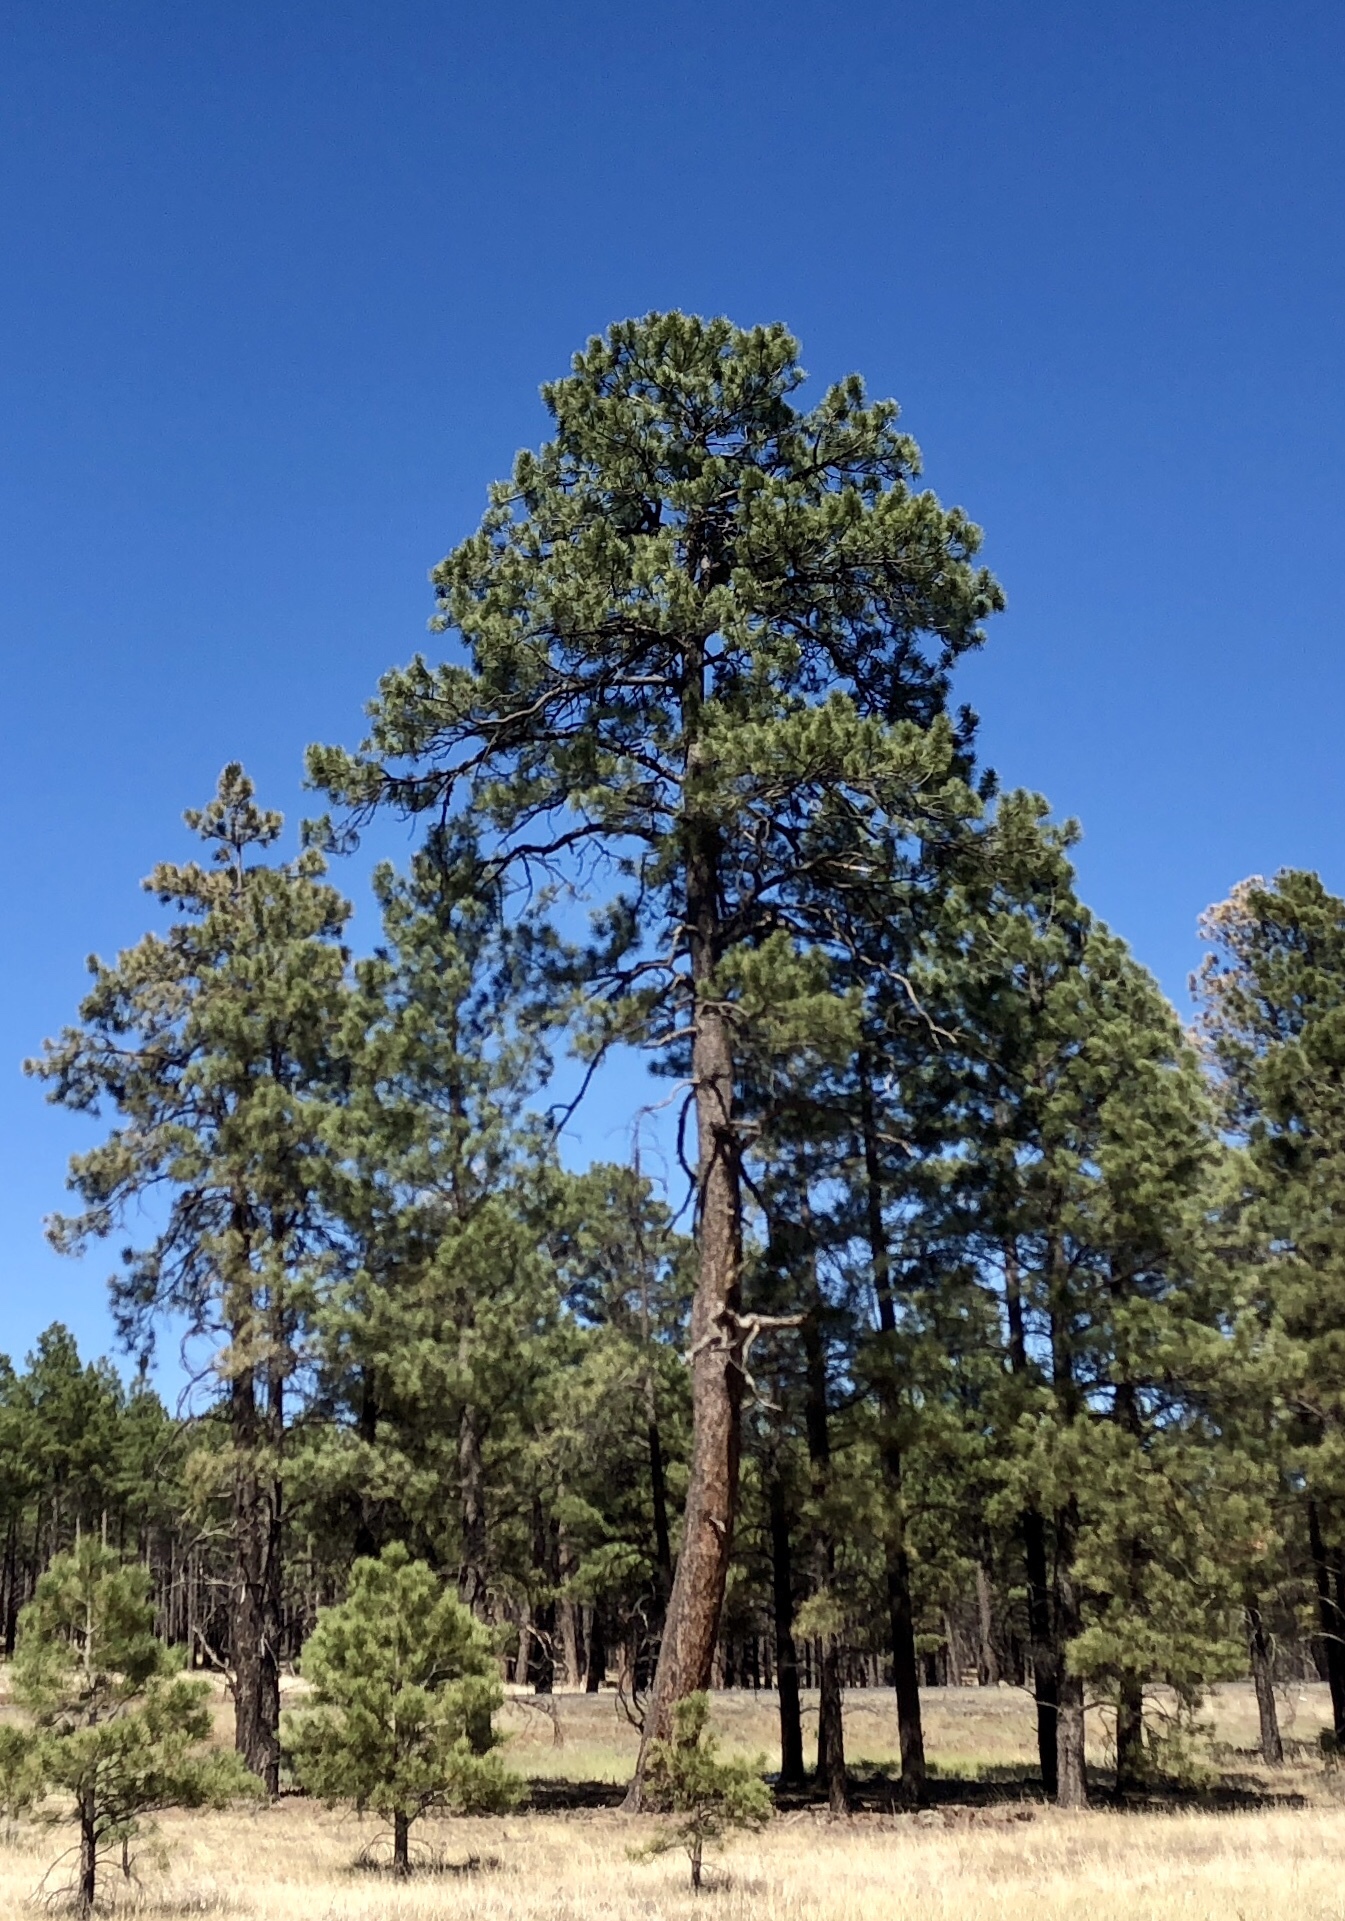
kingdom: Plantae
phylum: Tracheophyta
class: Pinopsida
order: Pinales
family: Pinaceae
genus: Pinus
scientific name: Pinus ponderosa
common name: Western yellow-pine
